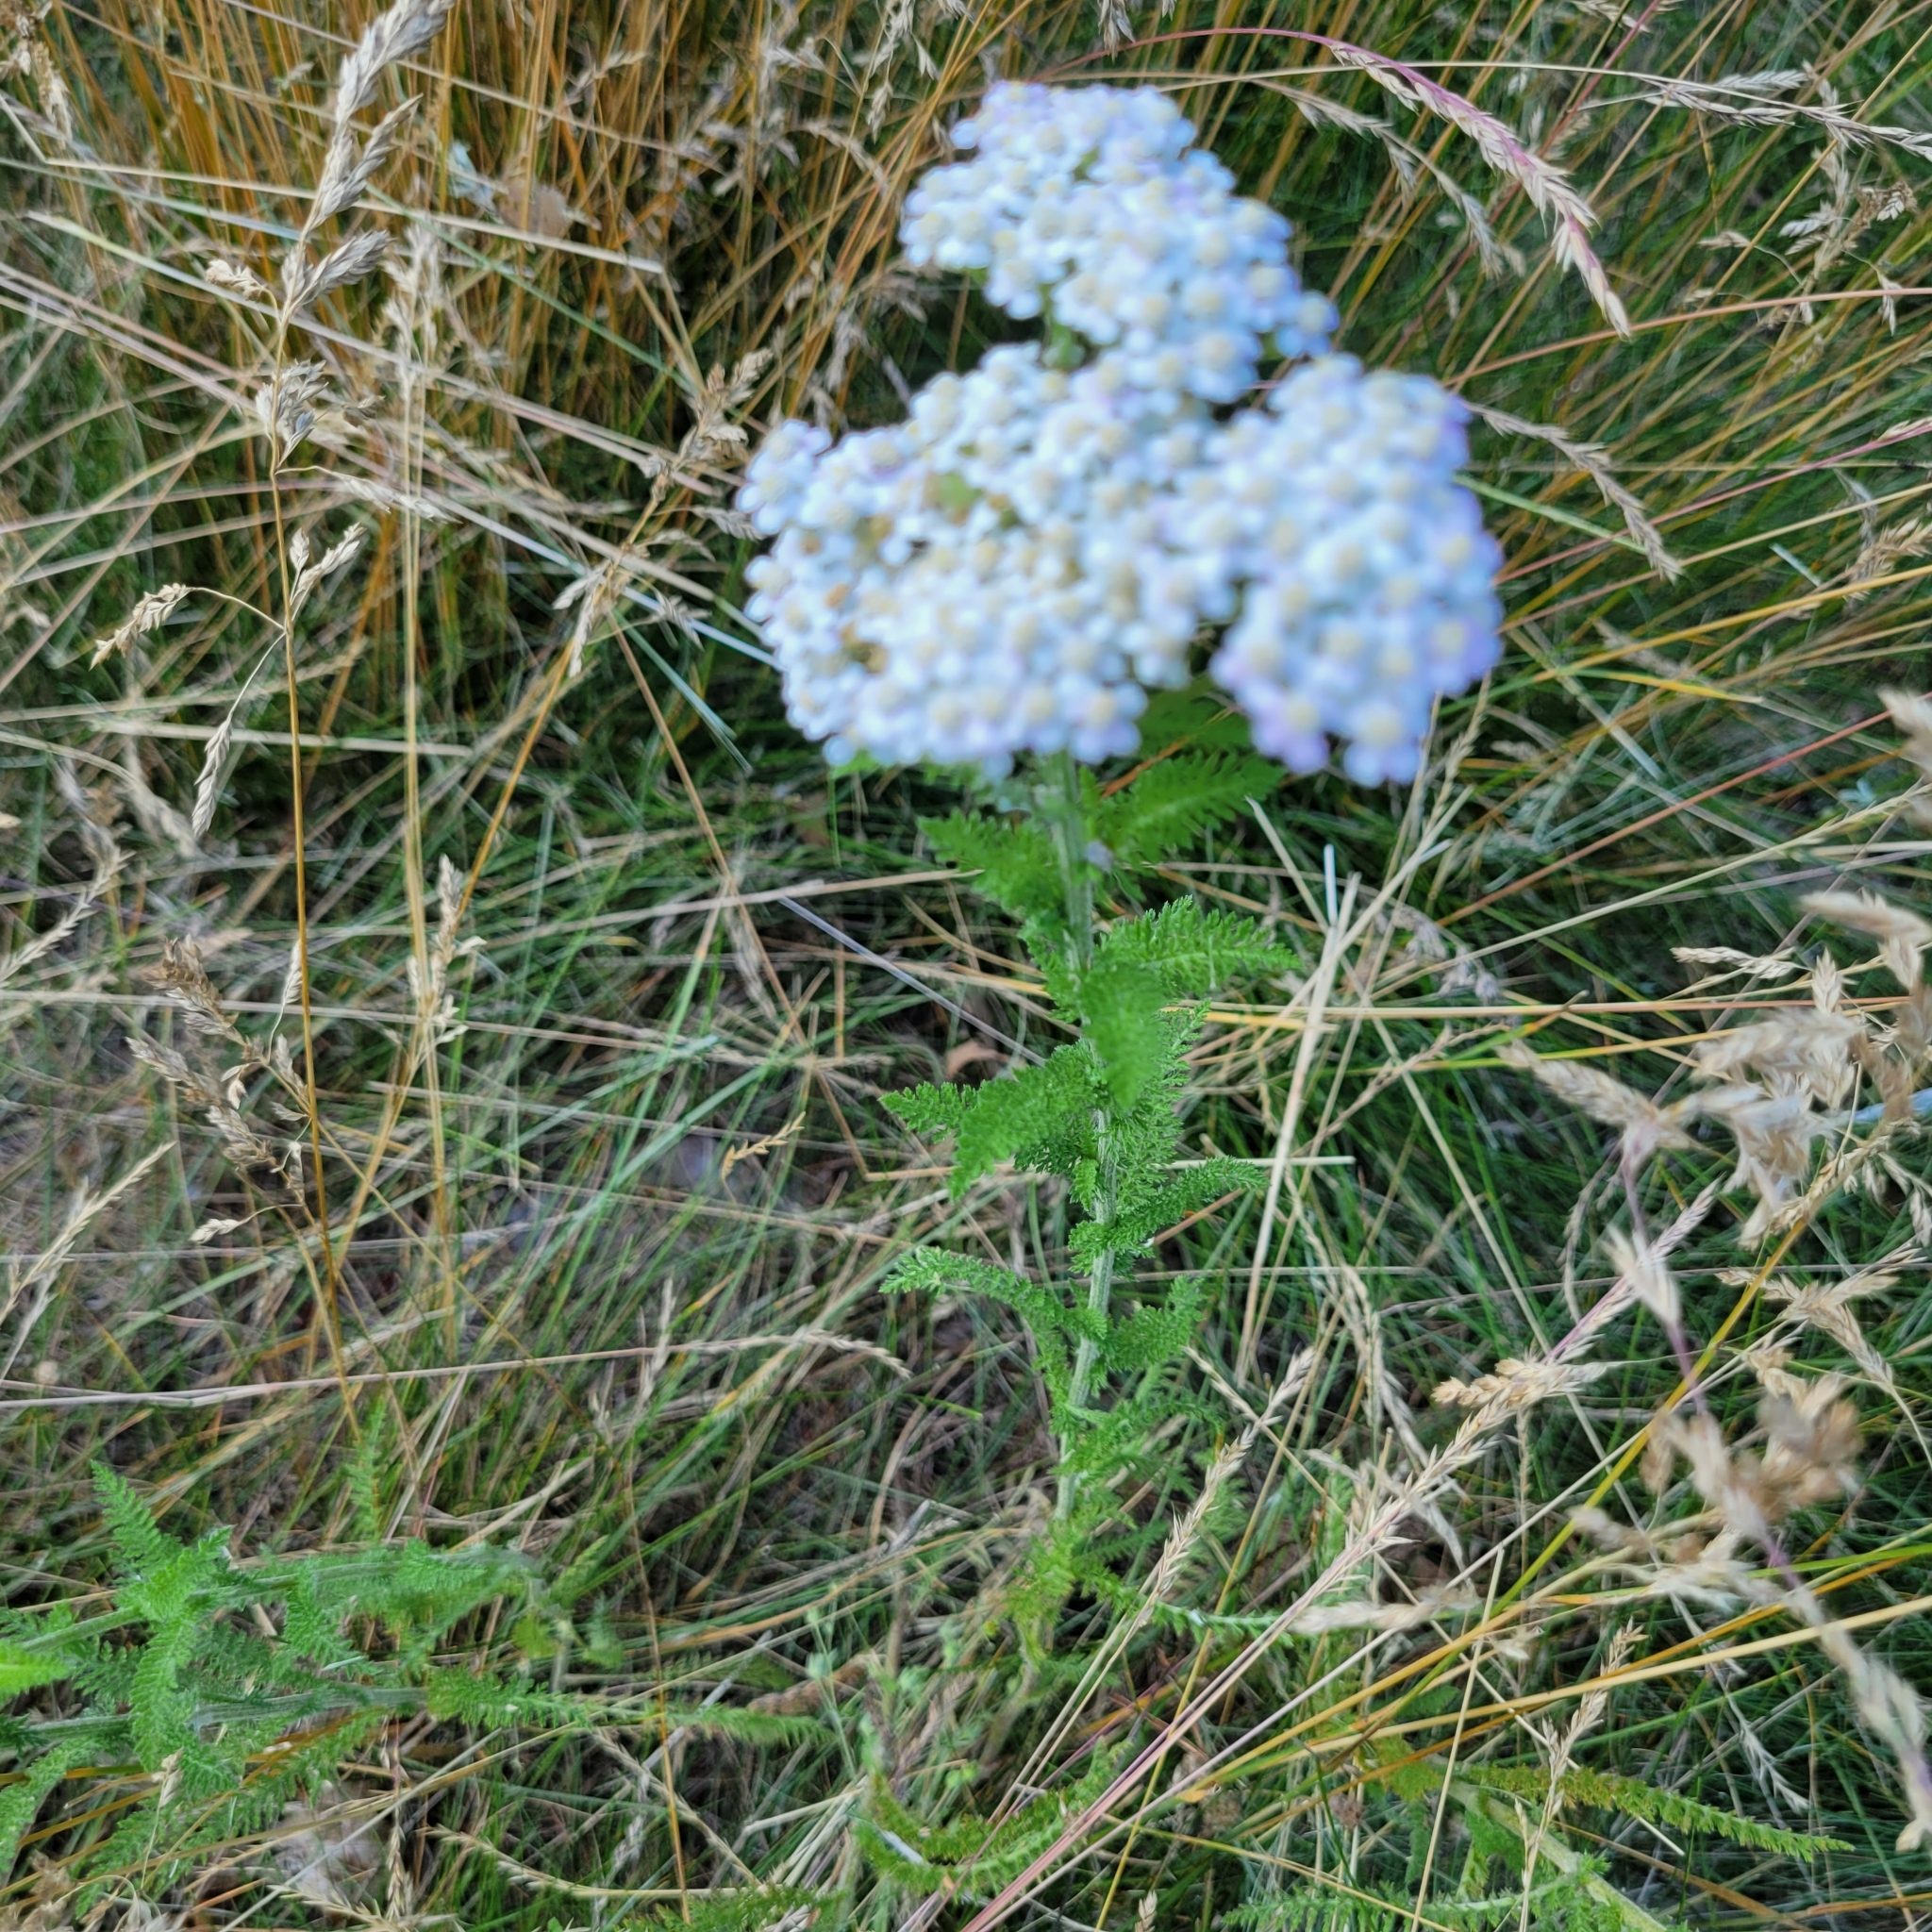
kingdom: Plantae
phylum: Tracheophyta
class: Magnoliopsida
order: Asterales
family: Asteraceae
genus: Achillea
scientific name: Achillea millefolium
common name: Yarrow
